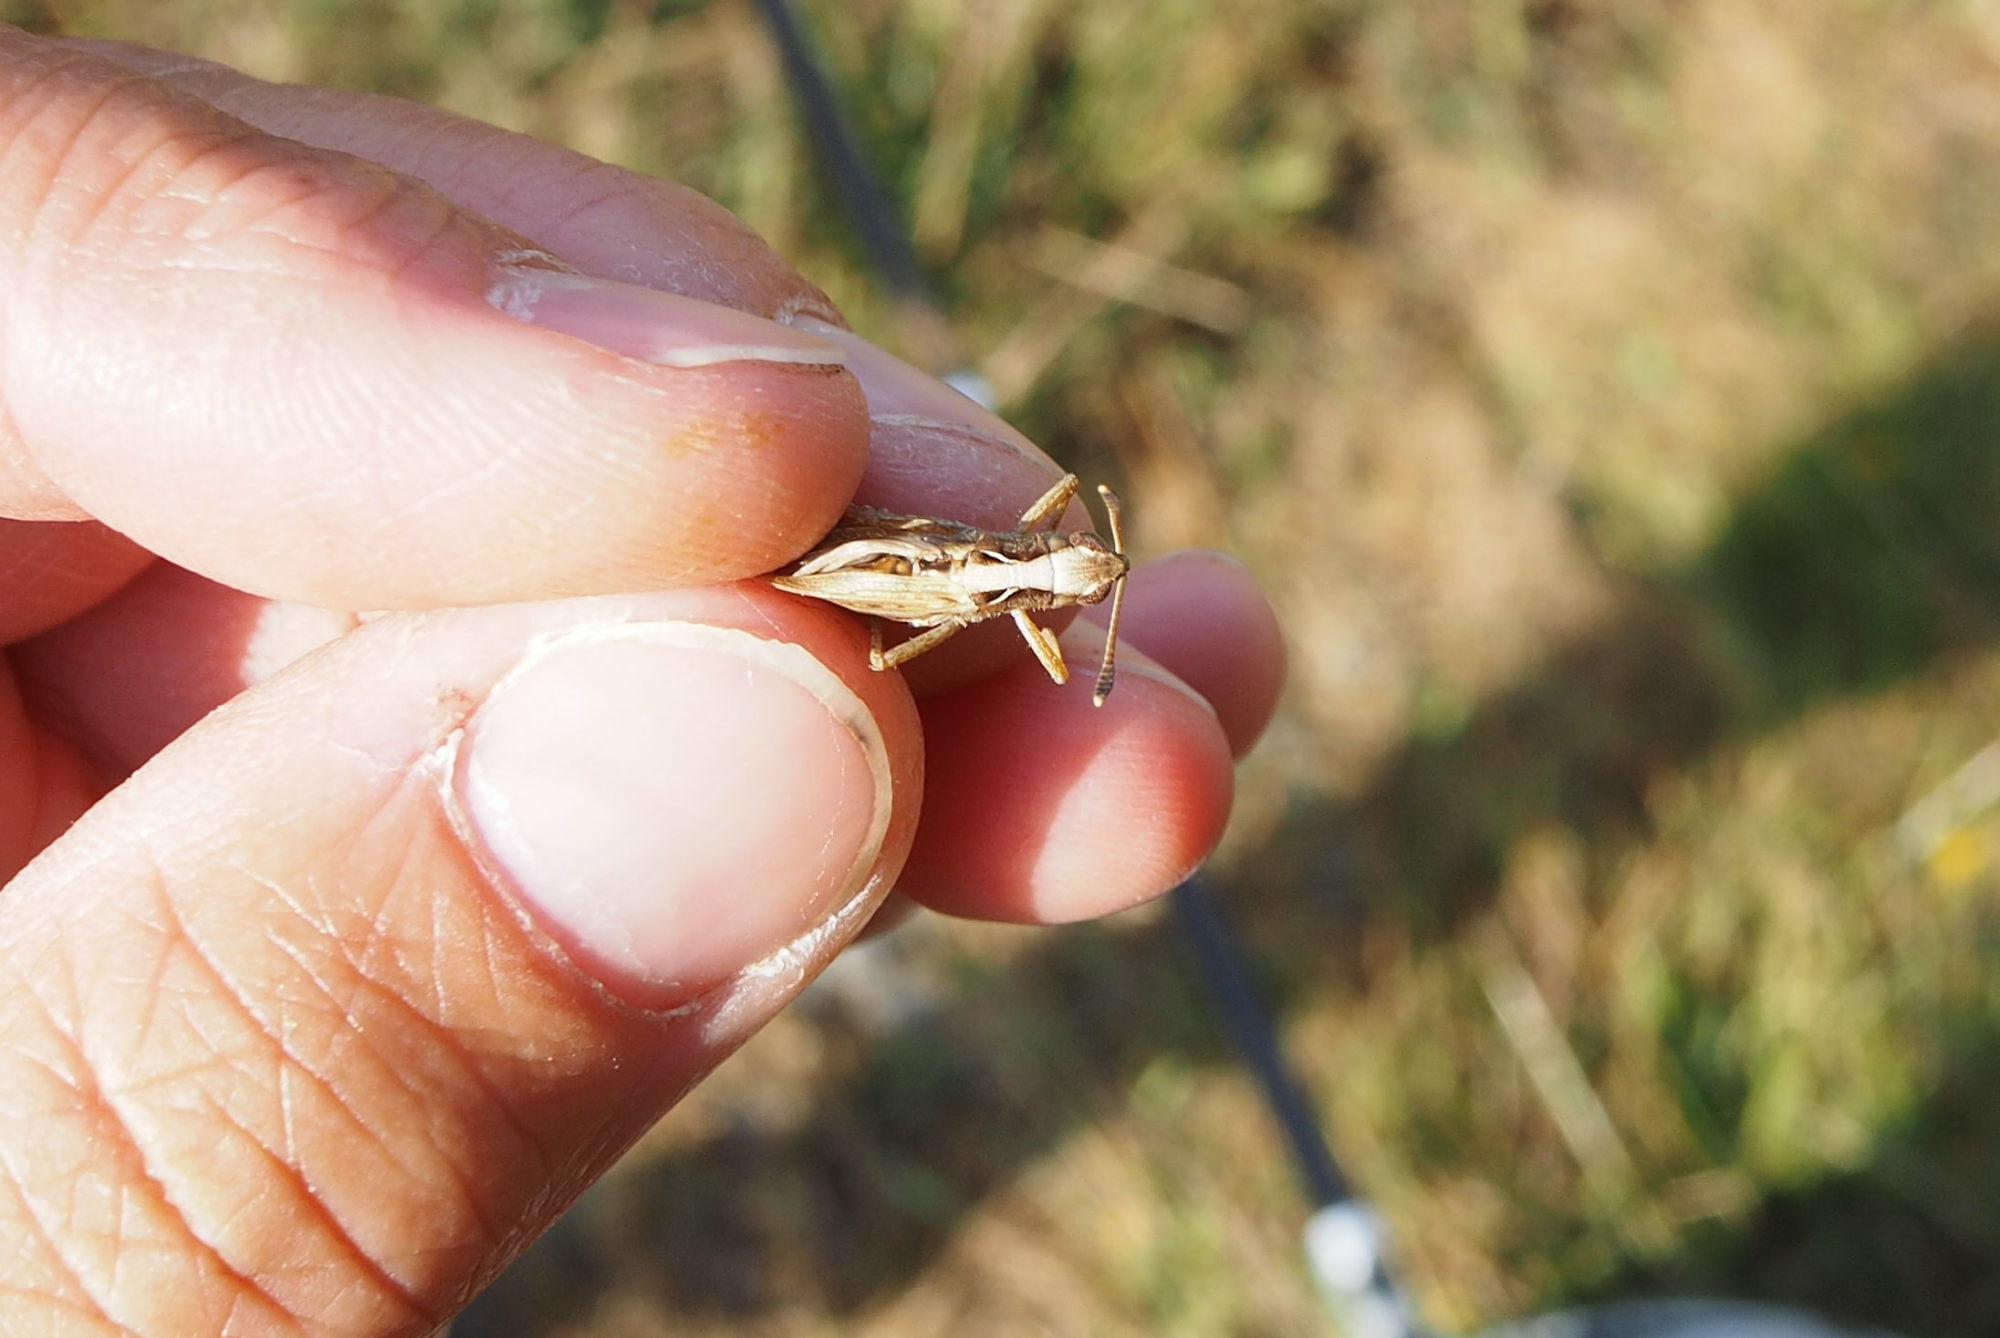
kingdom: Animalia
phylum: Arthropoda
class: Insecta
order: Orthoptera
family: Acrididae
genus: Gomphocerippus
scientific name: Gomphocerippus rufus
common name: Rufous grasshopper
